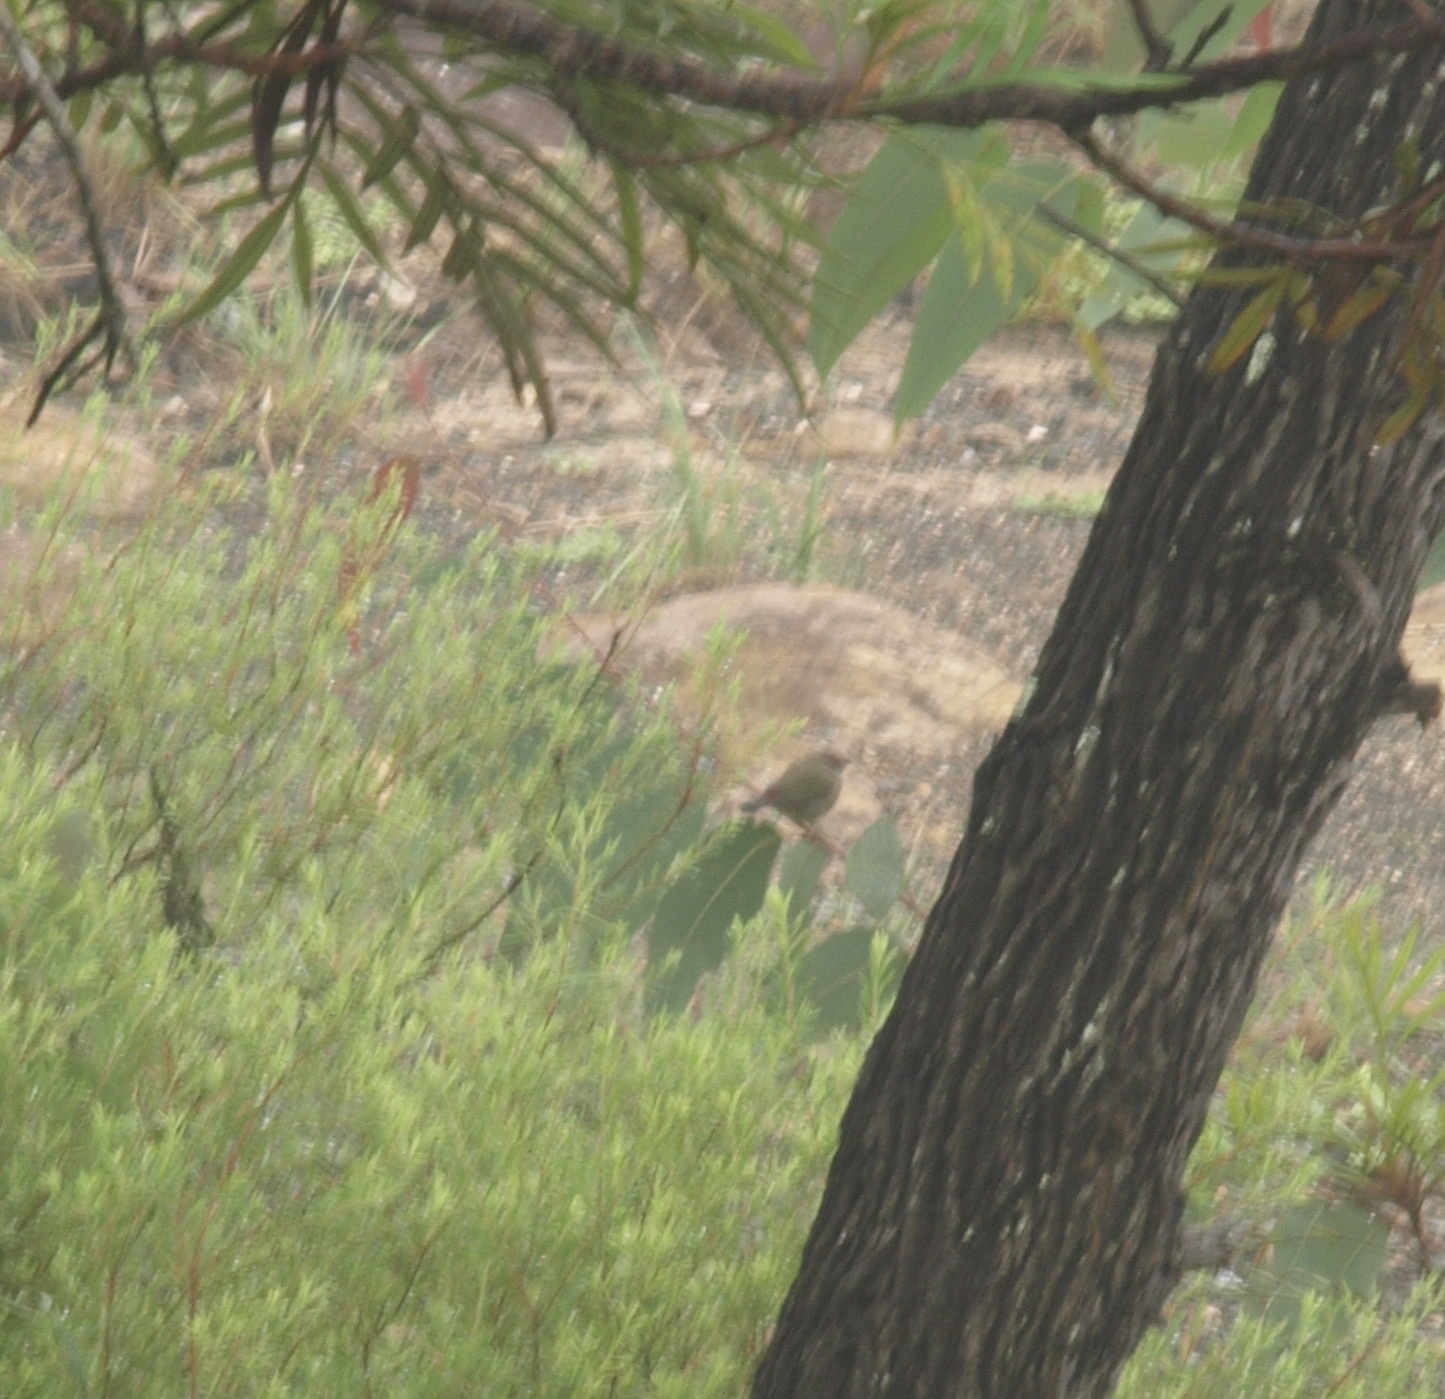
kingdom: Animalia
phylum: Chordata
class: Aves
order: Passeriformes
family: Estrildidae
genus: Neochmia
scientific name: Neochmia temporalis
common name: Red-browed finch
